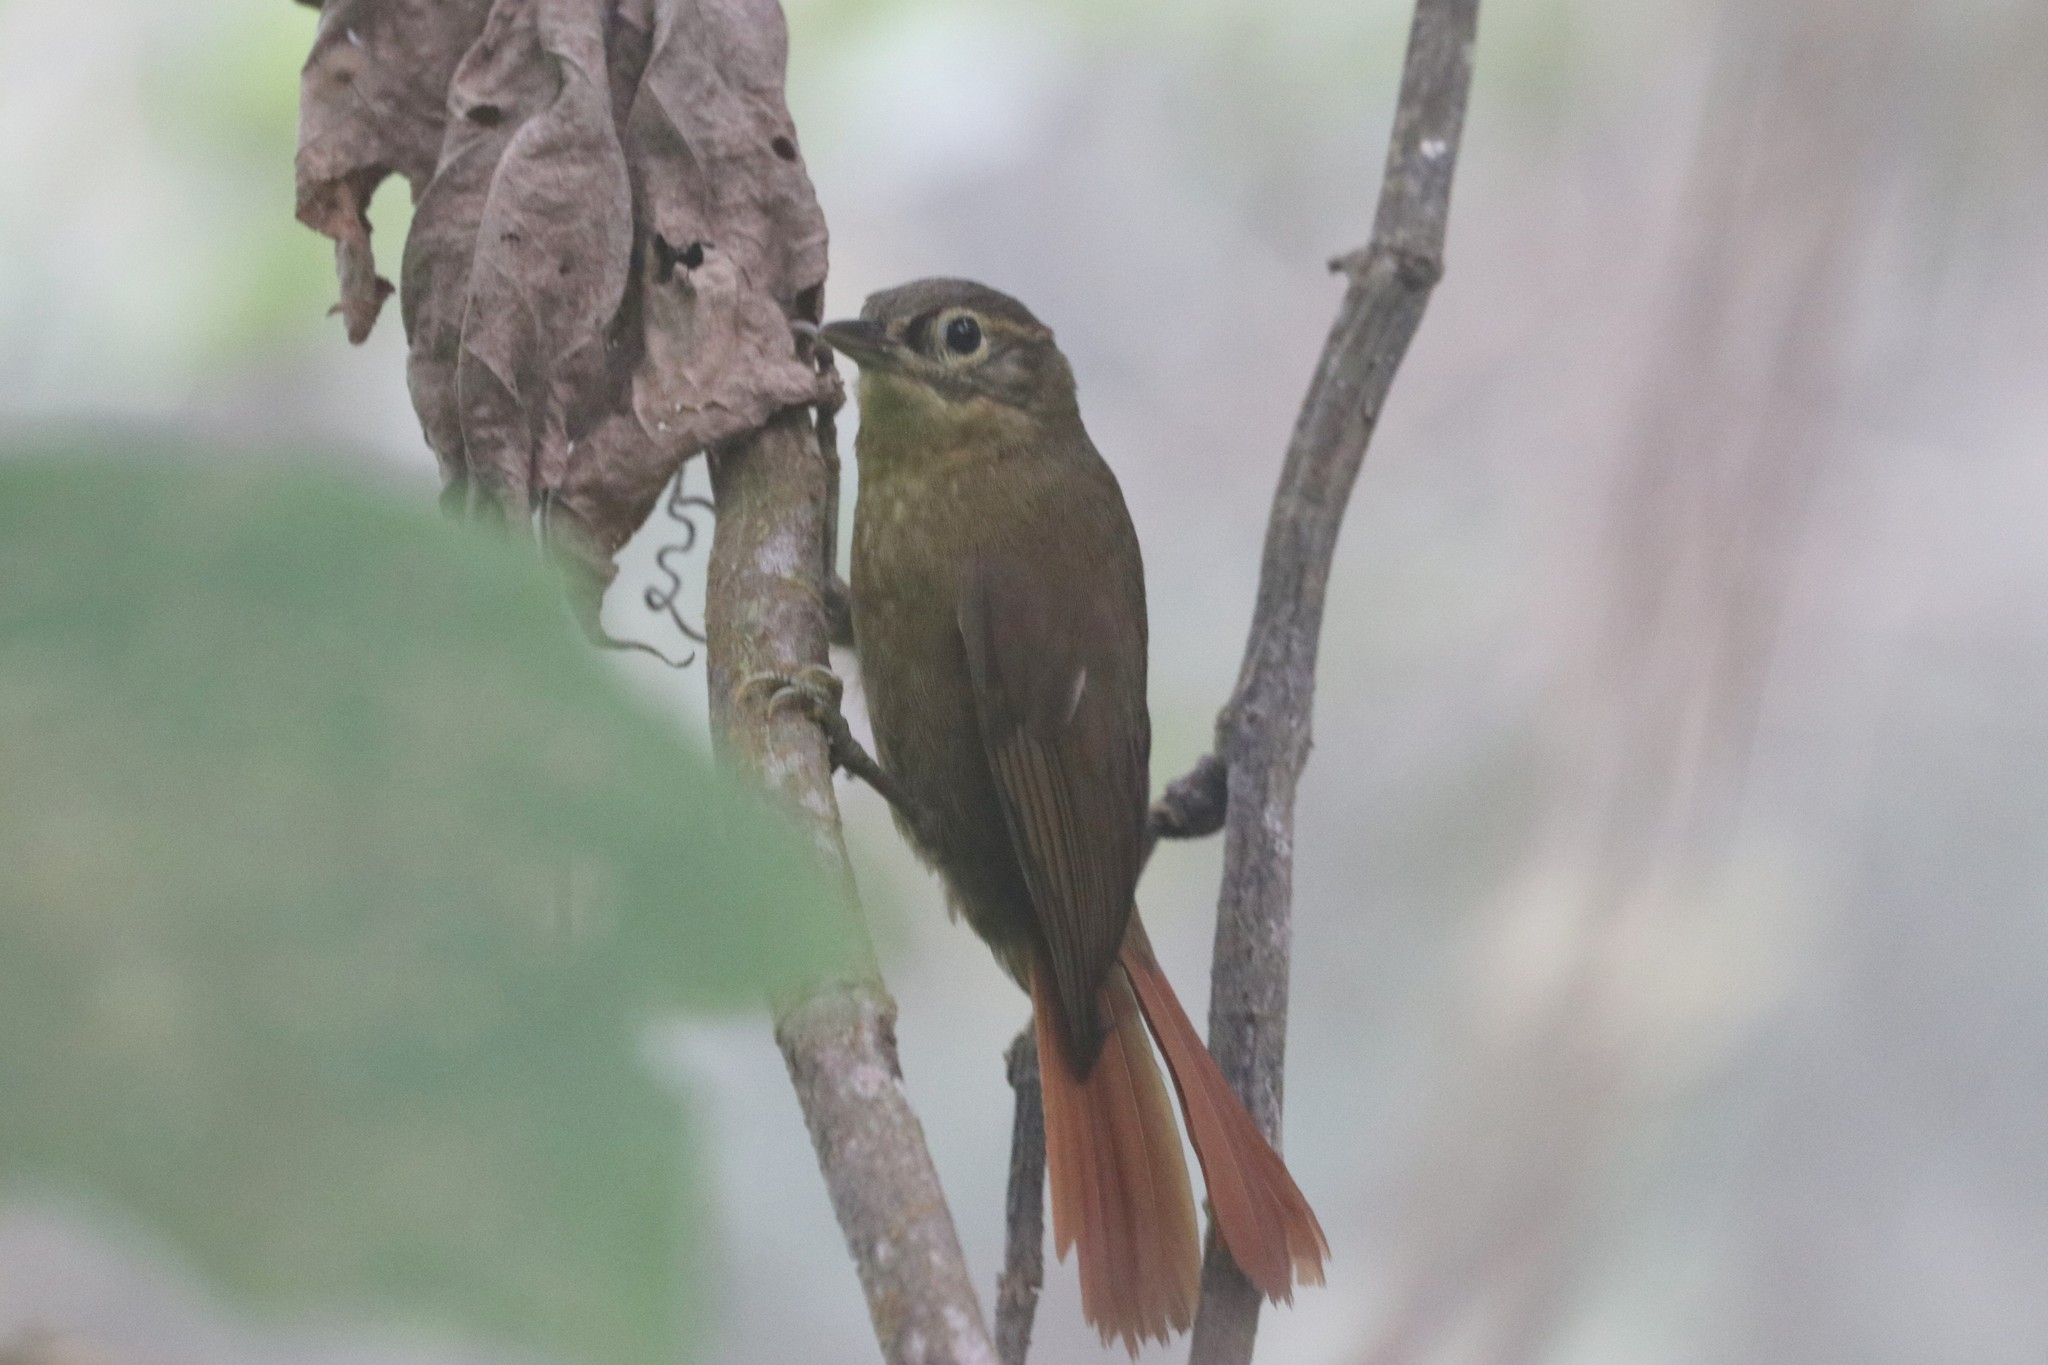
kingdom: Animalia
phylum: Chordata
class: Aves
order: Passeriformes
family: Furnariidae
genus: Anabacerthia
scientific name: Anabacerthia striaticollis
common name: Montane foliage-gleaner
